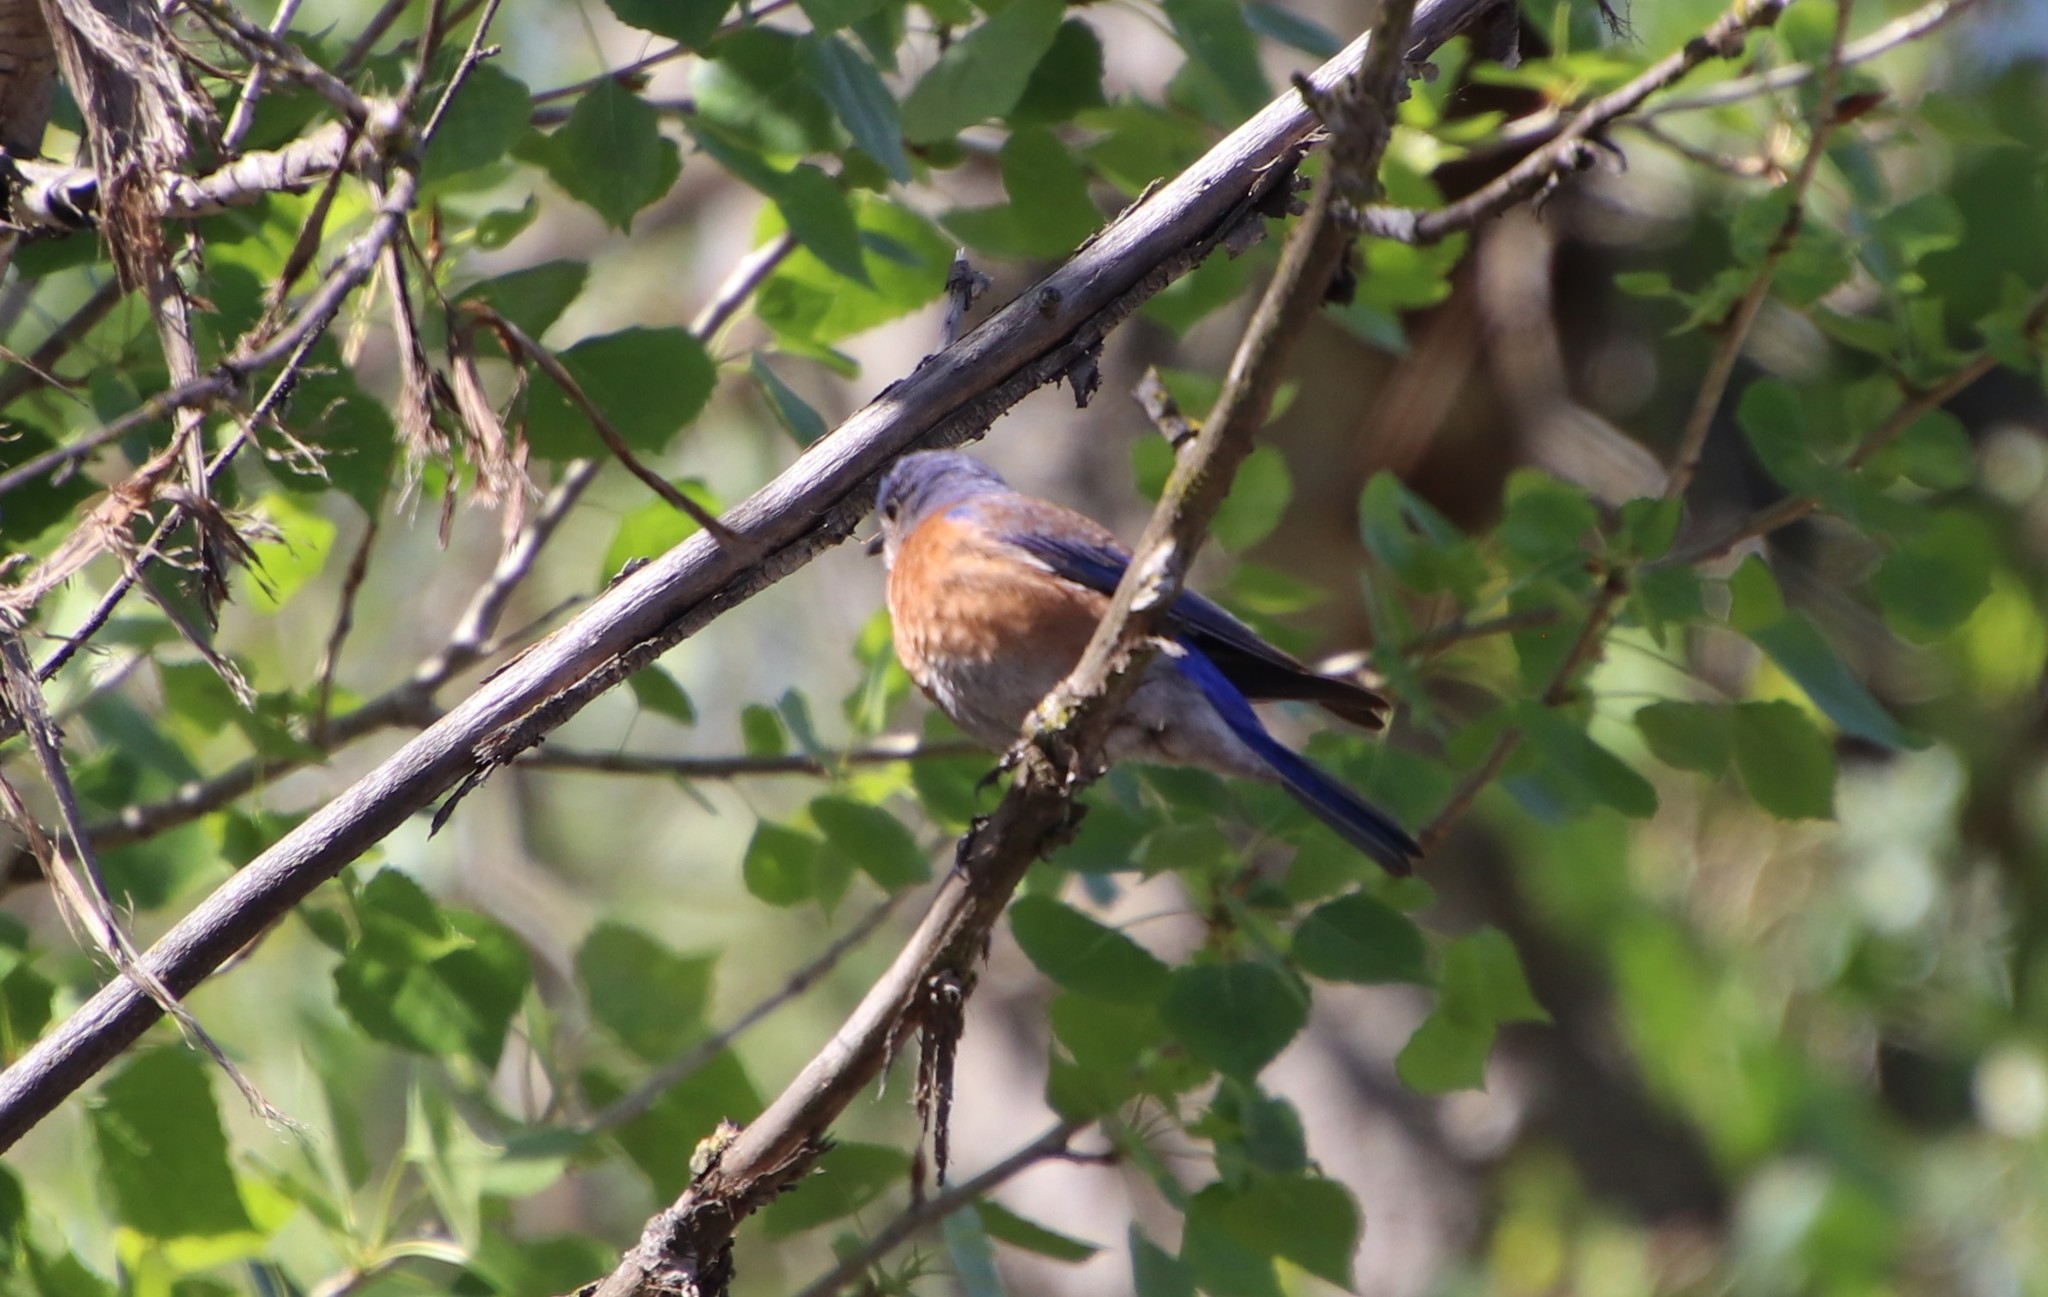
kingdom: Animalia
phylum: Chordata
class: Aves
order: Passeriformes
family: Turdidae
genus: Sialia
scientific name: Sialia mexicana
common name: Western bluebird
